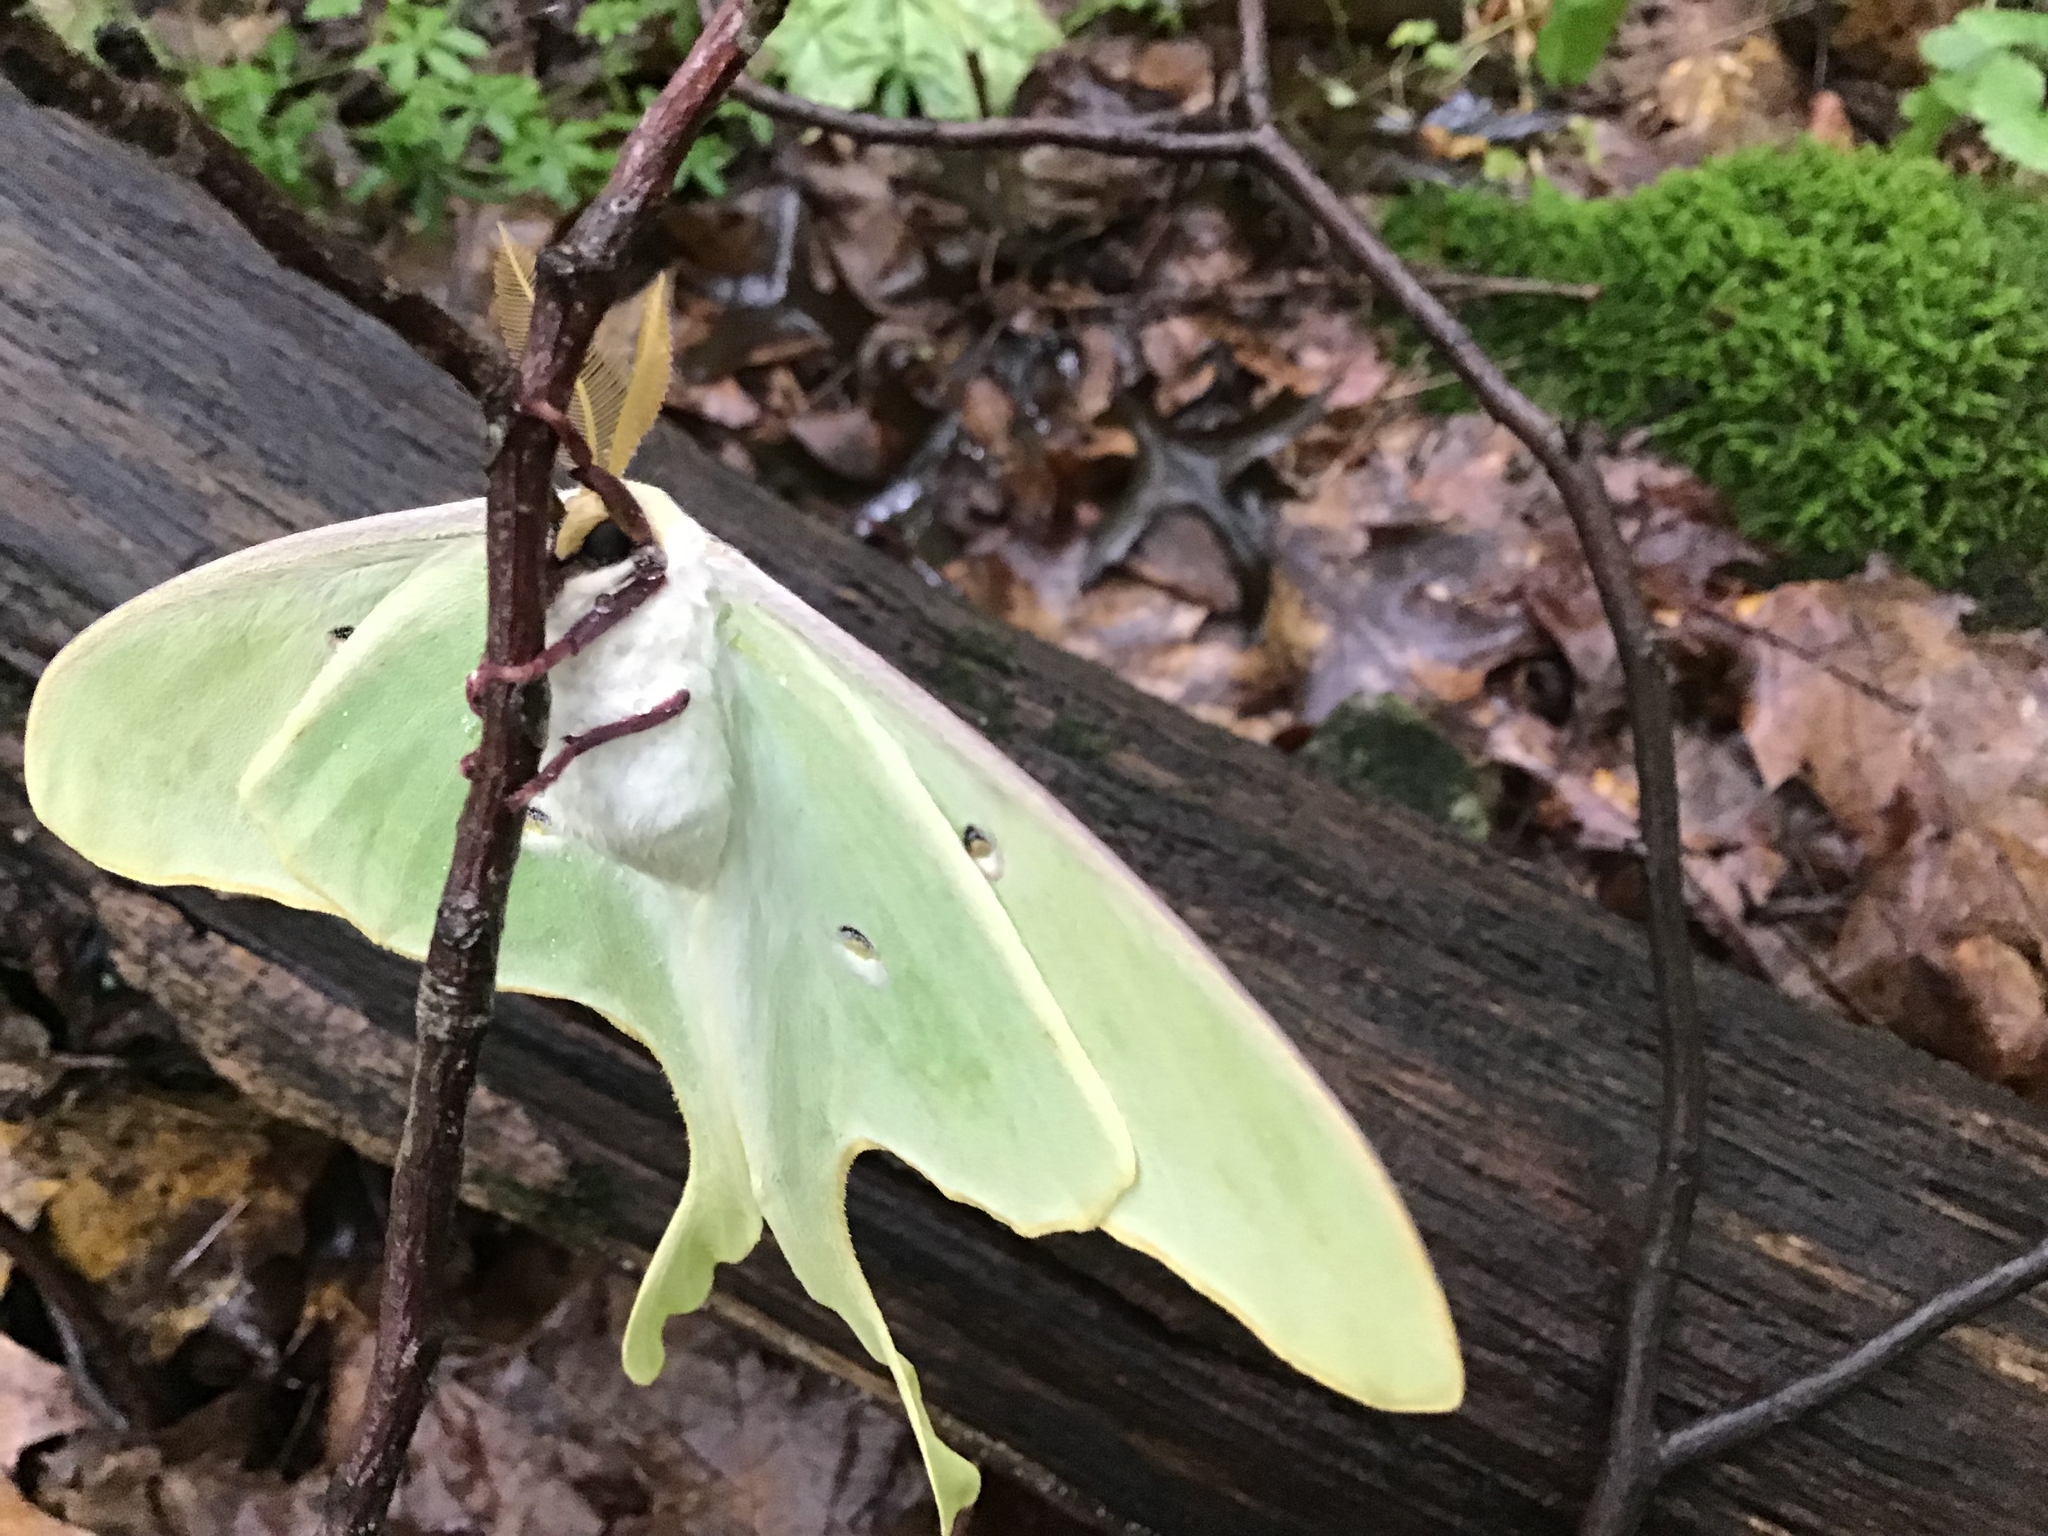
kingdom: Animalia
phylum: Arthropoda
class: Insecta
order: Lepidoptera
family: Saturniidae
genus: Actias
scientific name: Actias luna
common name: Luna moth
